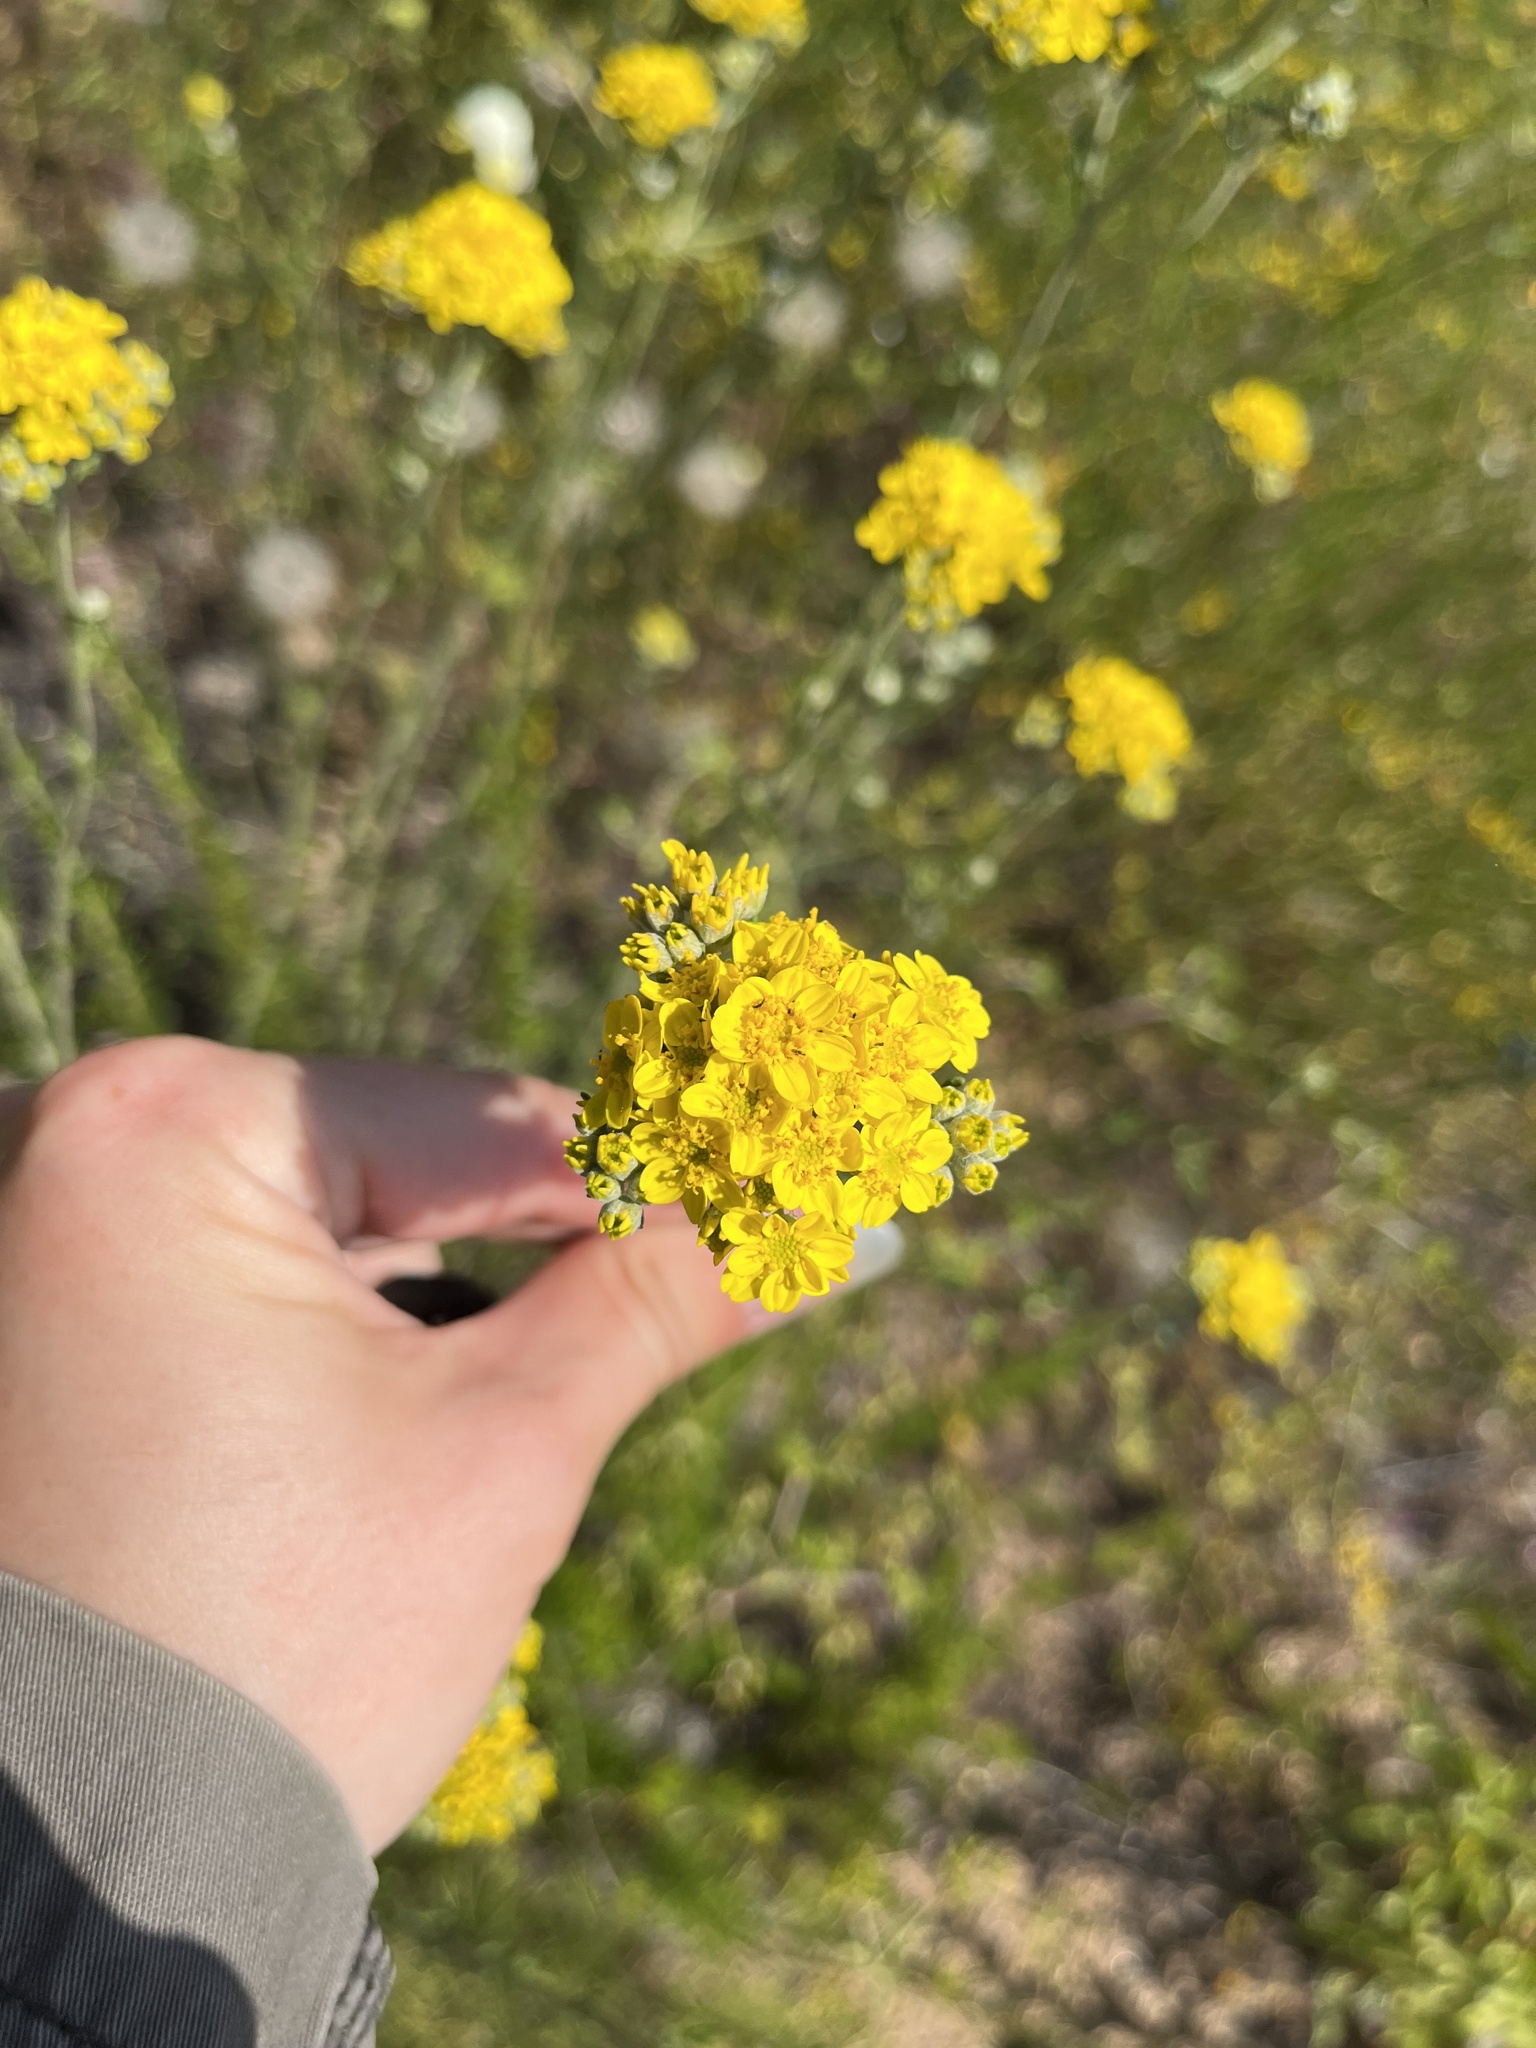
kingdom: Plantae
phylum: Tracheophyta
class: Magnoliopsida
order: Asterales
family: Asteraceae
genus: Eriophyllum
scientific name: Eriophyllum confertiflorum
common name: Golden-yarrow
